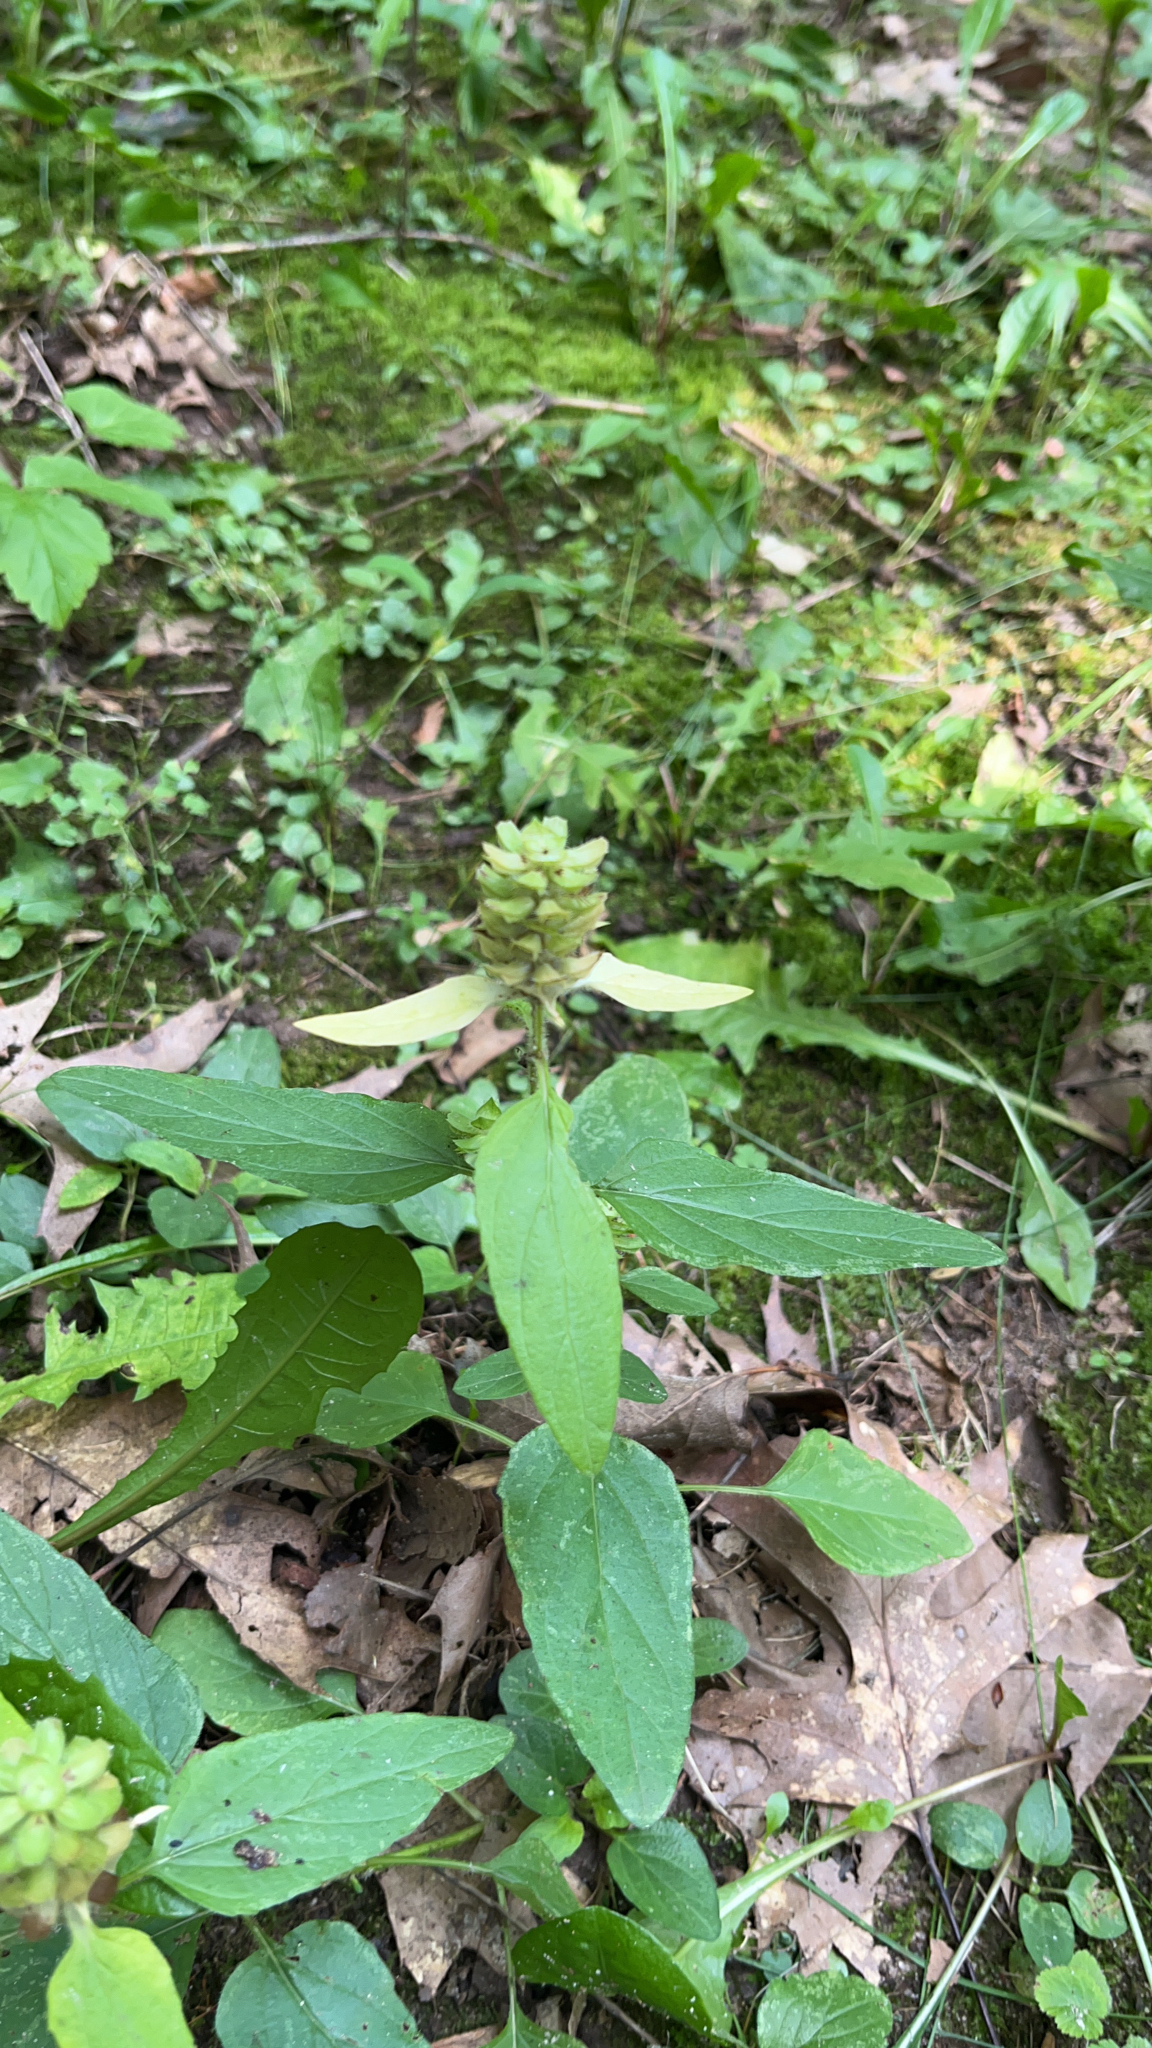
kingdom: Plantae
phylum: Tracheophyta
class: Magnoliopsida
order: Lamiales
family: Lamiaceae
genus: Prunella
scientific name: Prunella vulgaris
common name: Heal-all
